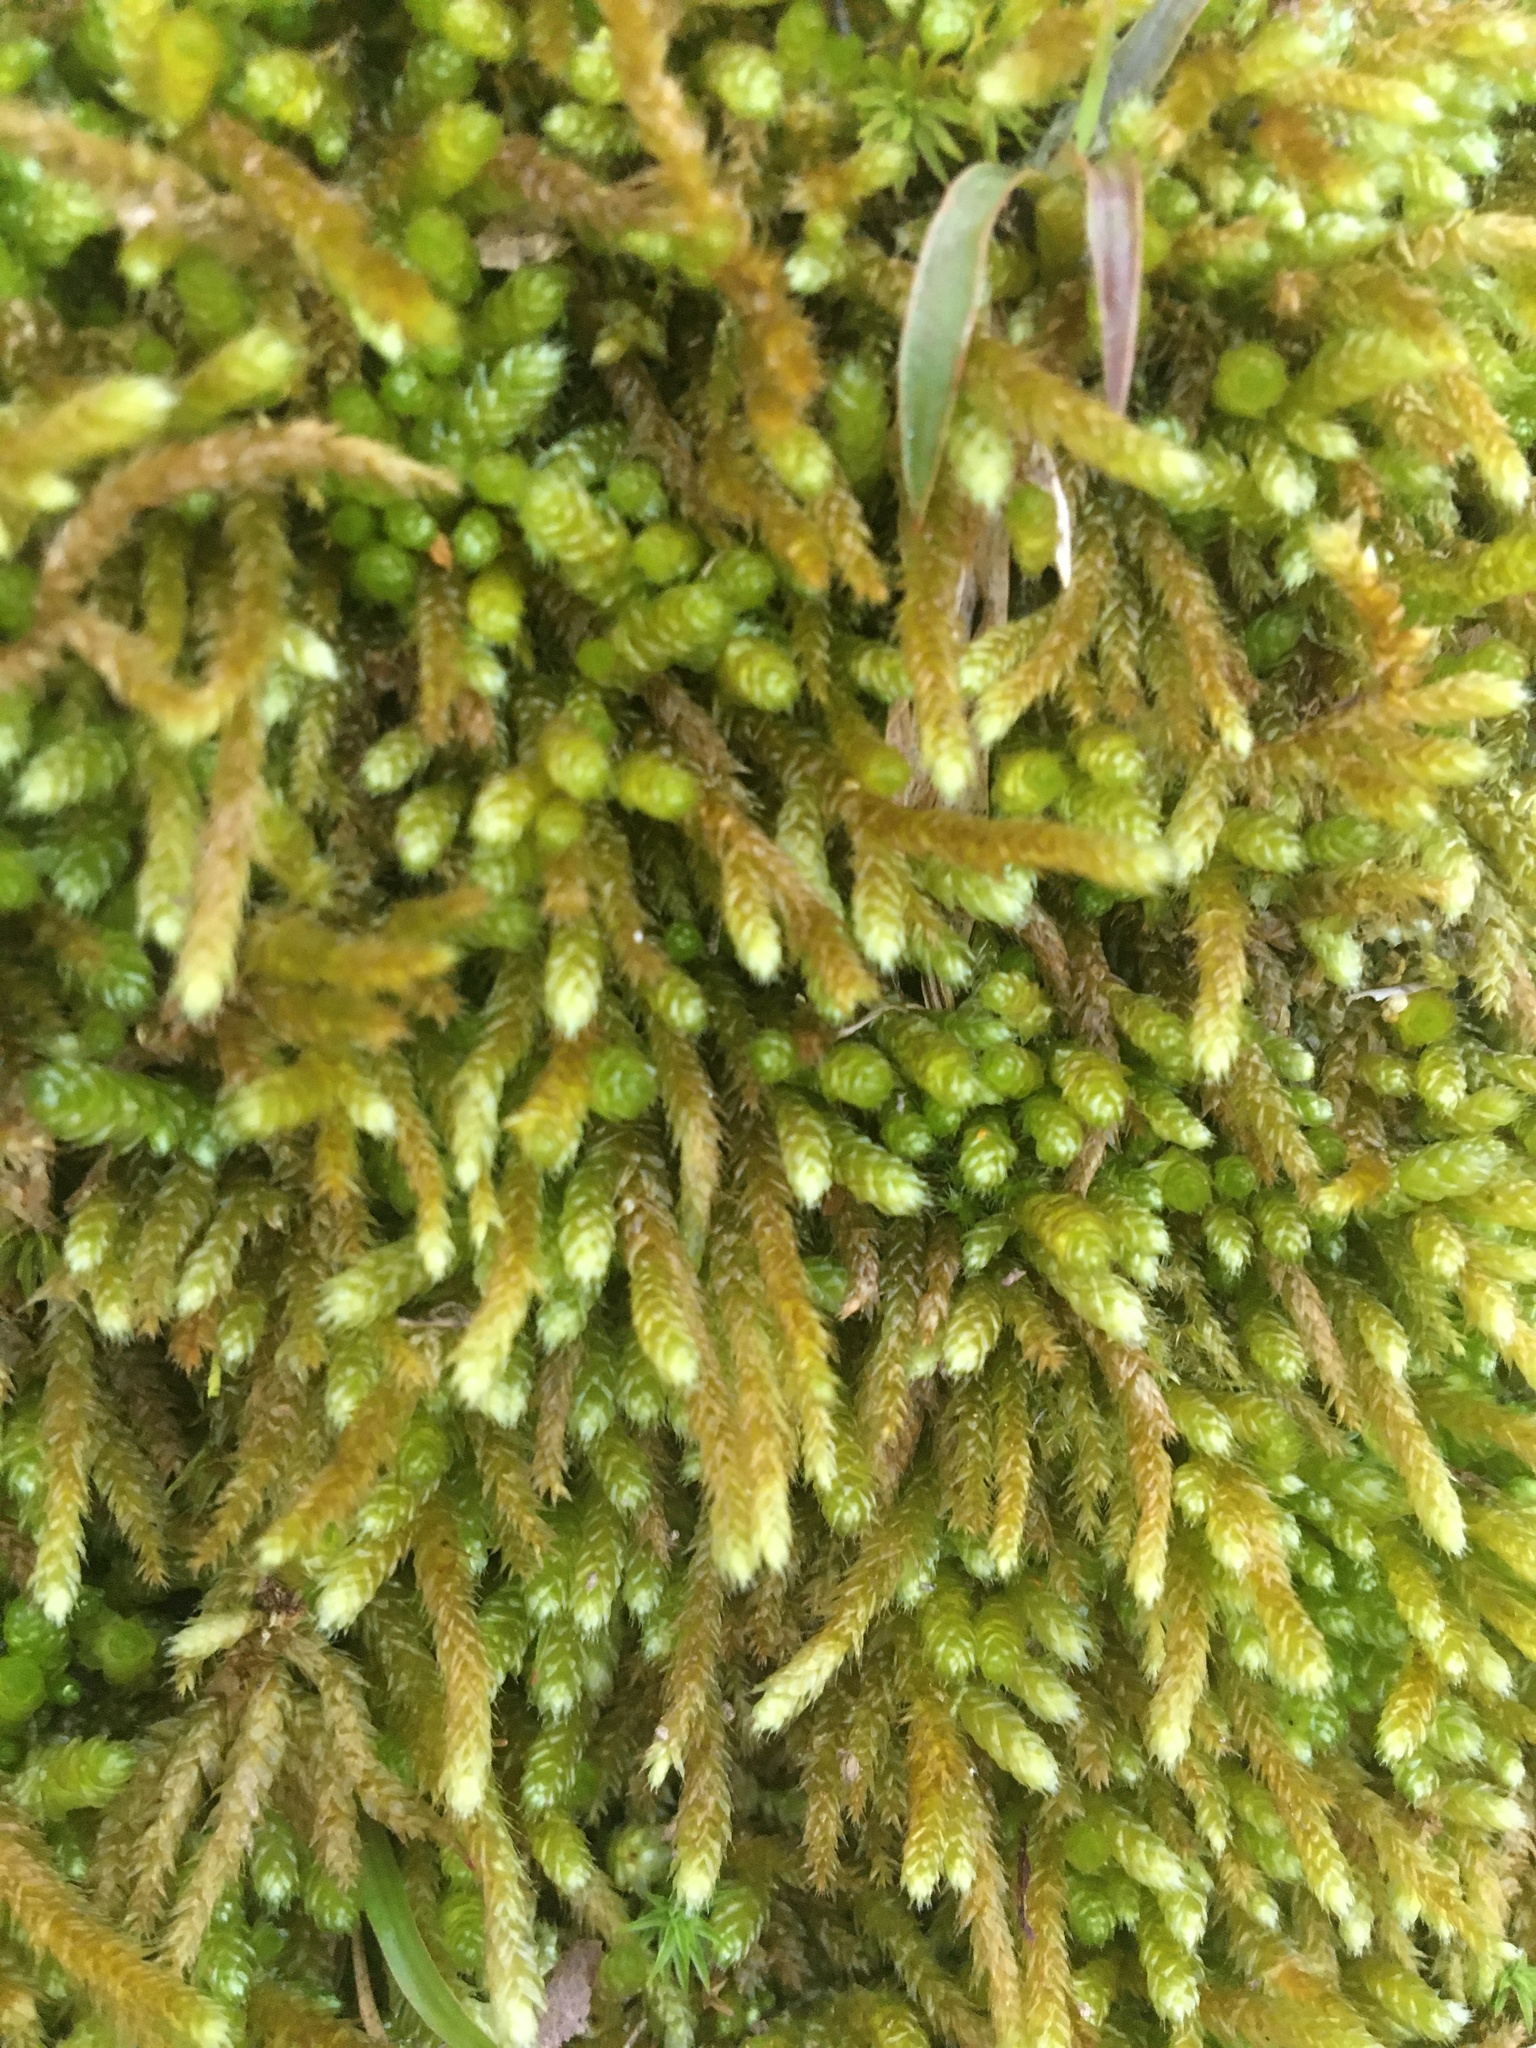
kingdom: Plantae
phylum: Bryophyta
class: Bryopsida
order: Hypnales
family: Brachytheciaceae
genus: Bryoandersonia
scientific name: Bryoandersonia illecebra
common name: Spoon-leaved moss
